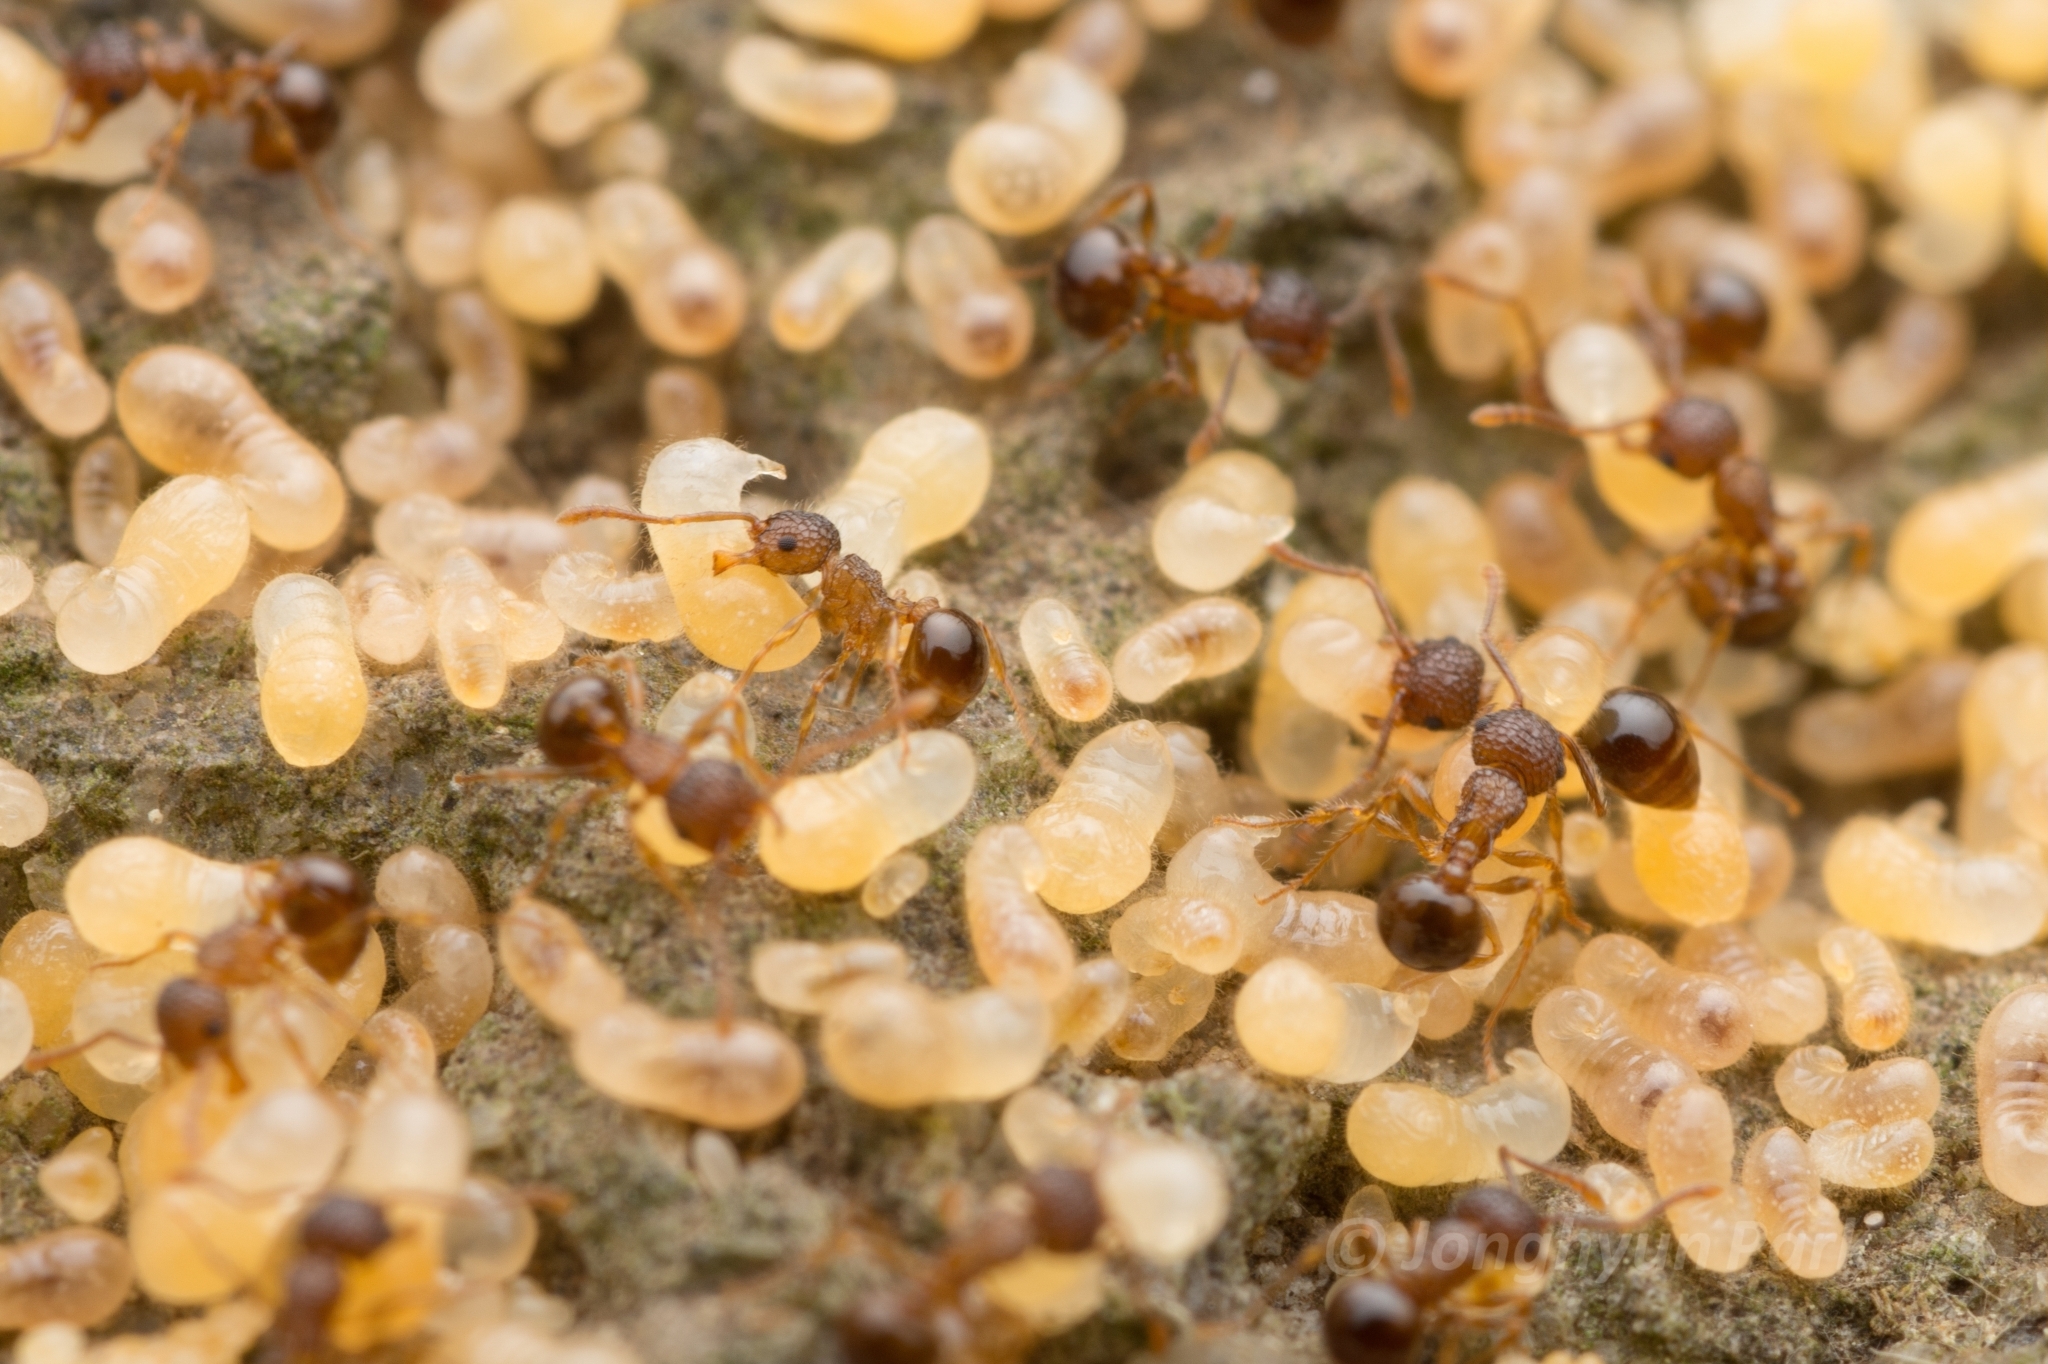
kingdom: Animalia
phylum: Arthropoda
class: Insecta
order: Hymenoptera
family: Formicidae
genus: Pristomyrmex
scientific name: Pristomyrmex punctatus
